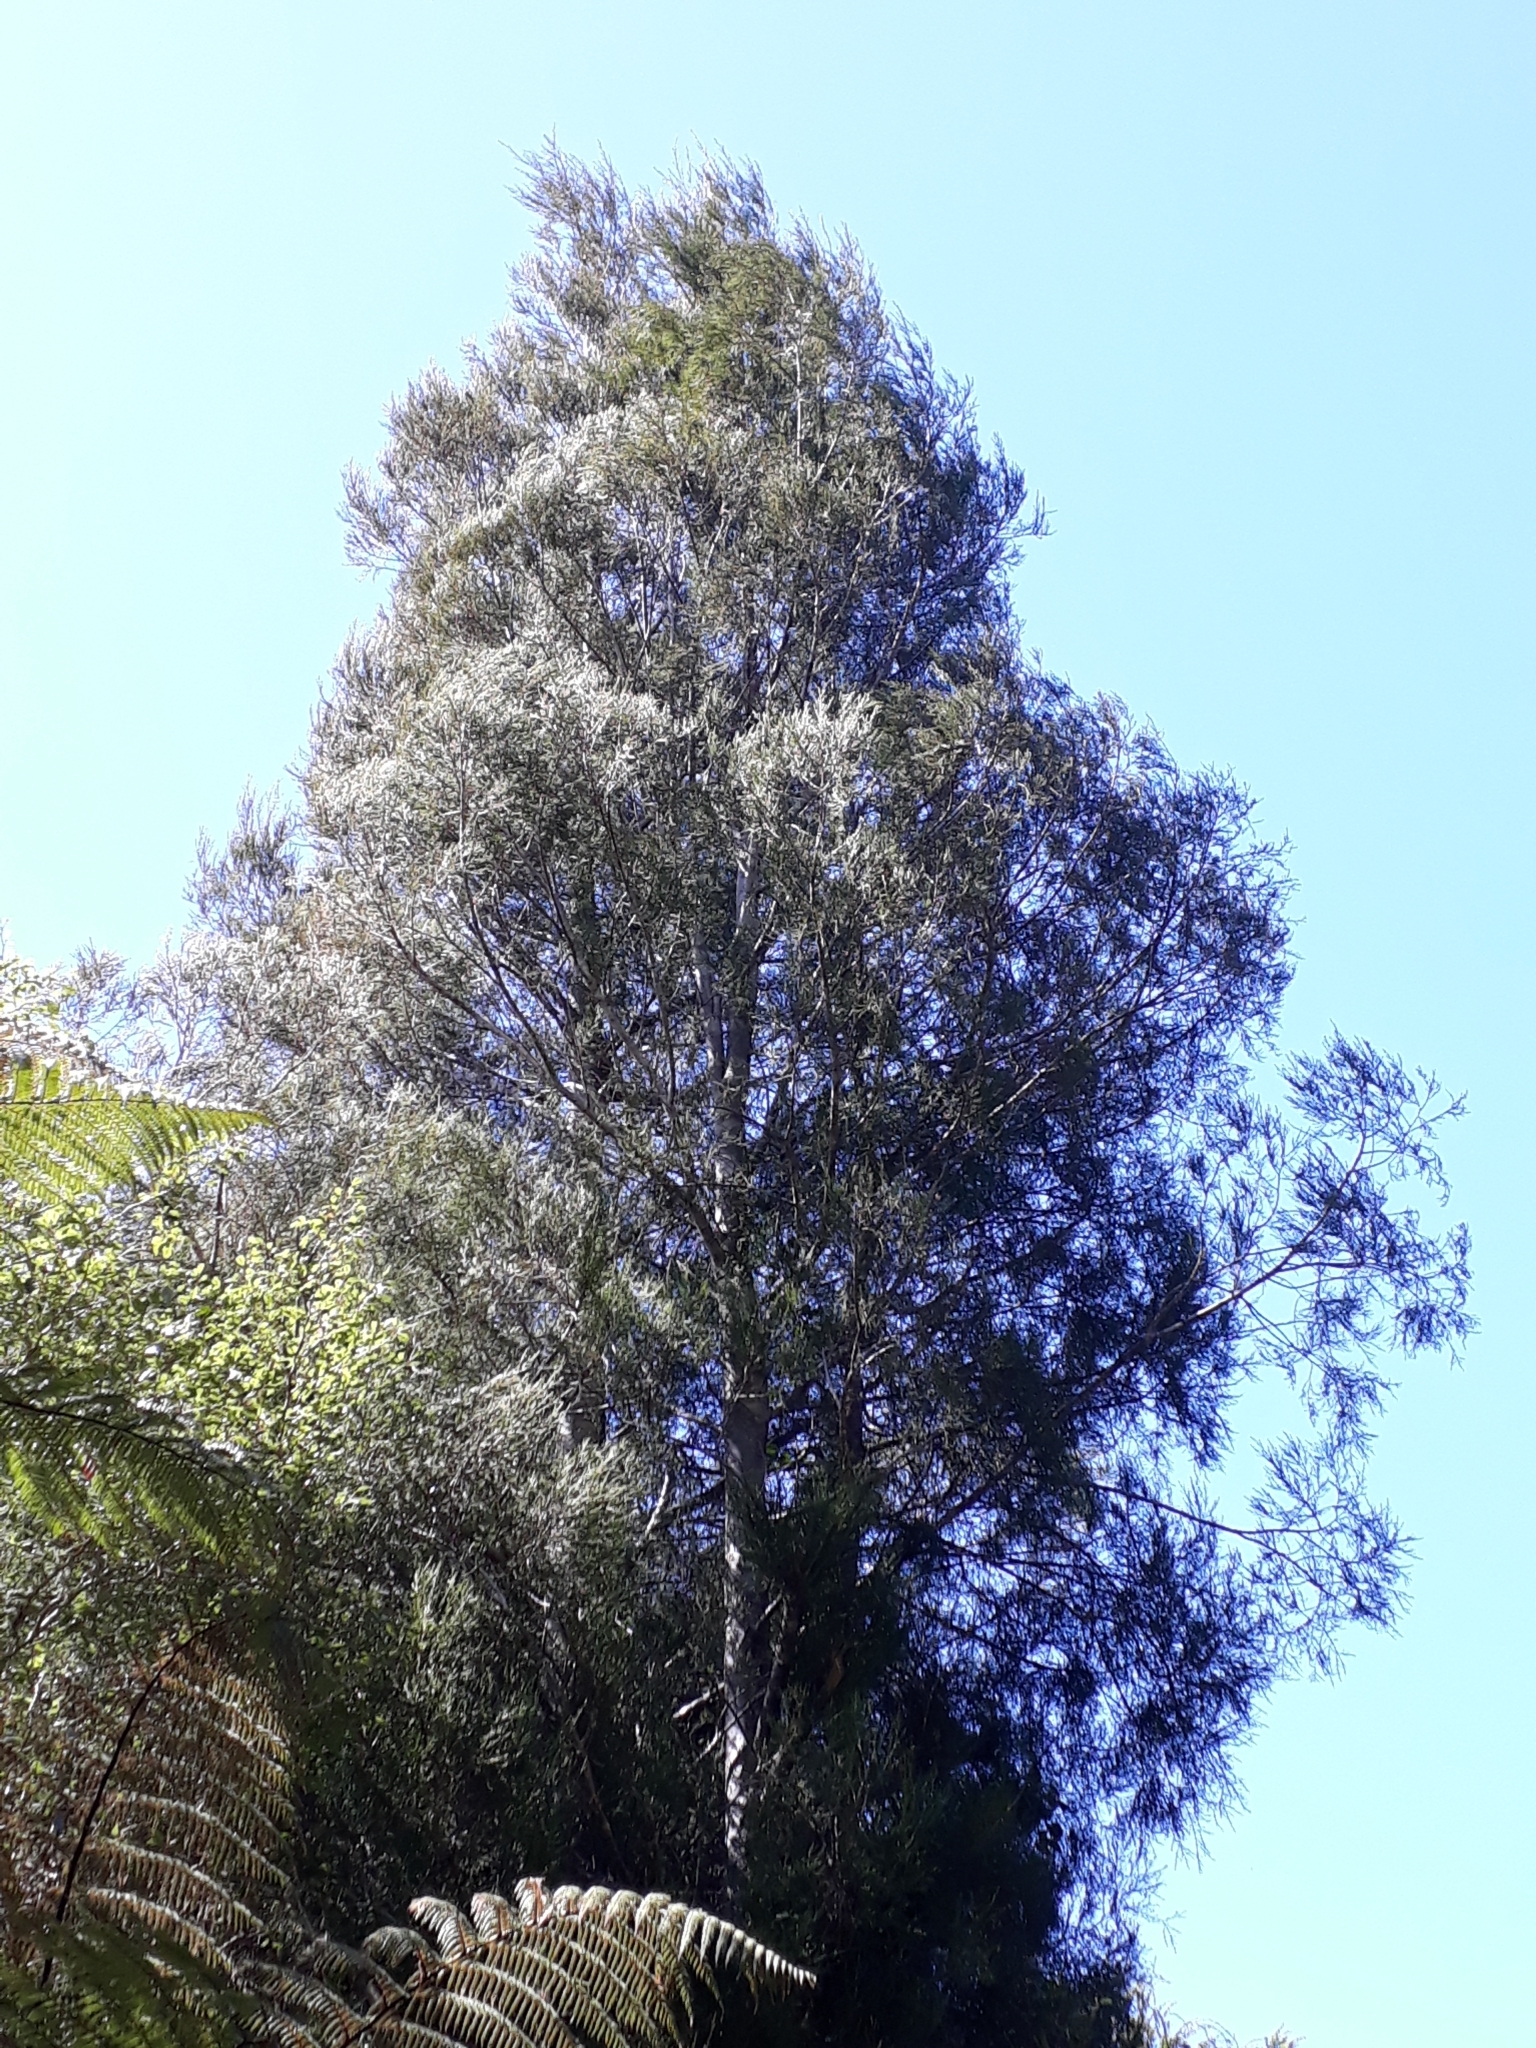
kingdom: Plantae
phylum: Tracheophyta
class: Pinopsida
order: Pinales
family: Podocarpaceae
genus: Dacrycarpus
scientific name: Dacrycarpus dacrydioides
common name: White pine
